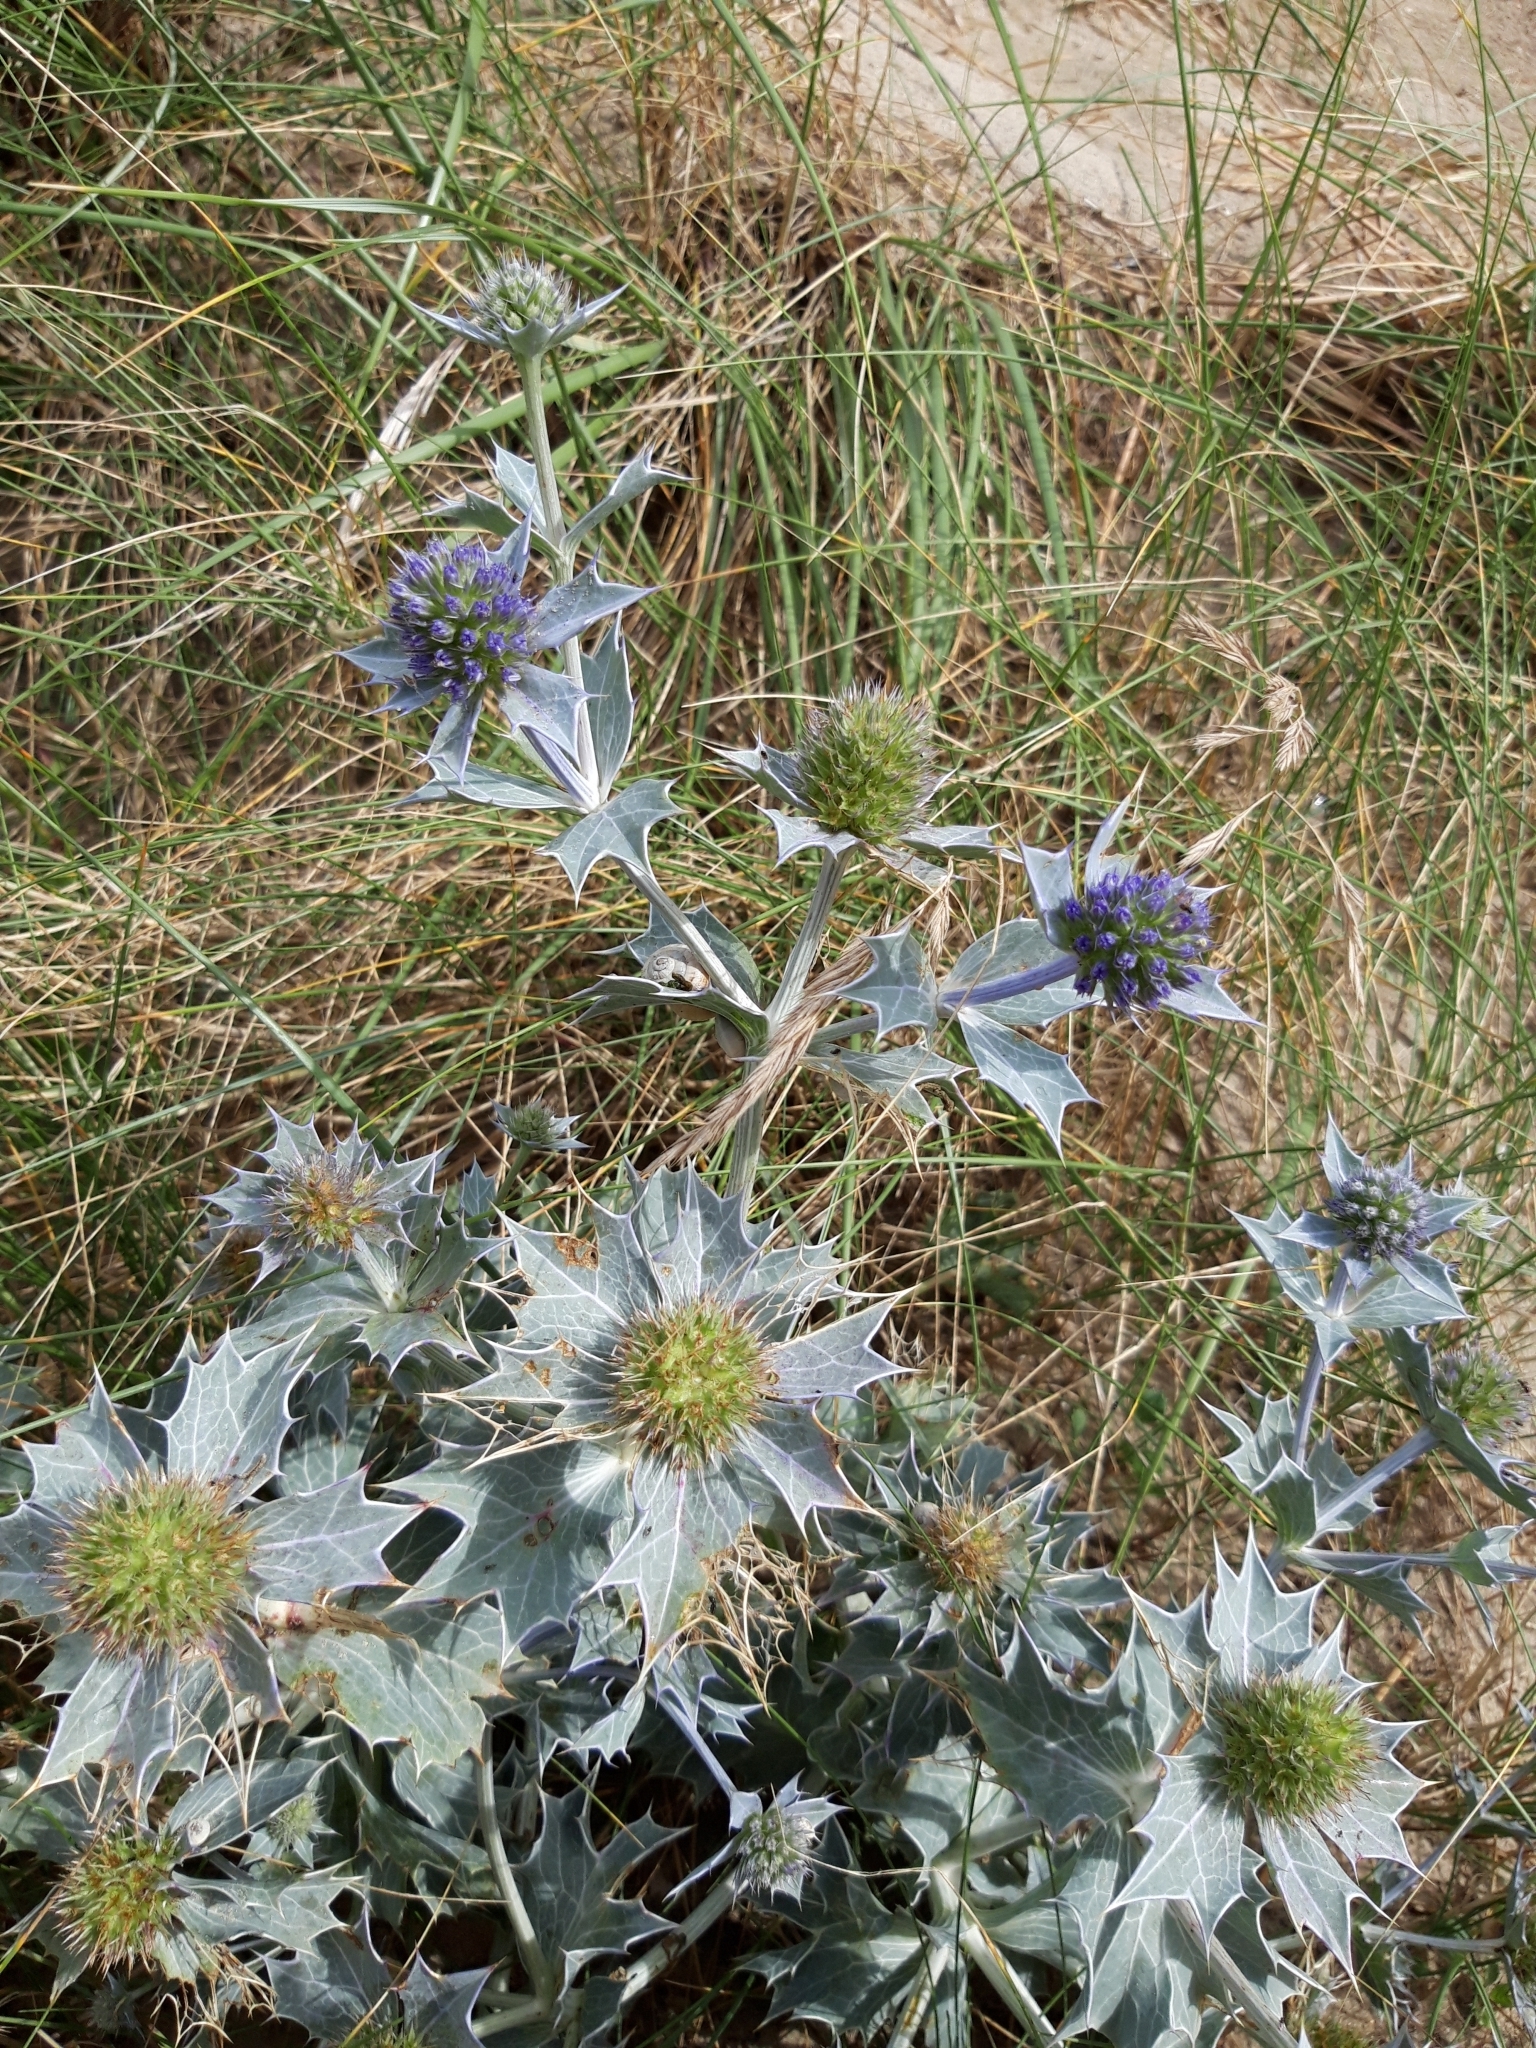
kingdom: Plantae
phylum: Tracheophyta
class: Magnoliopsida
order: Apiales
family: Apiaceae
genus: Eryngium
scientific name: Eryngium maritimum
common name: Sea-holly
